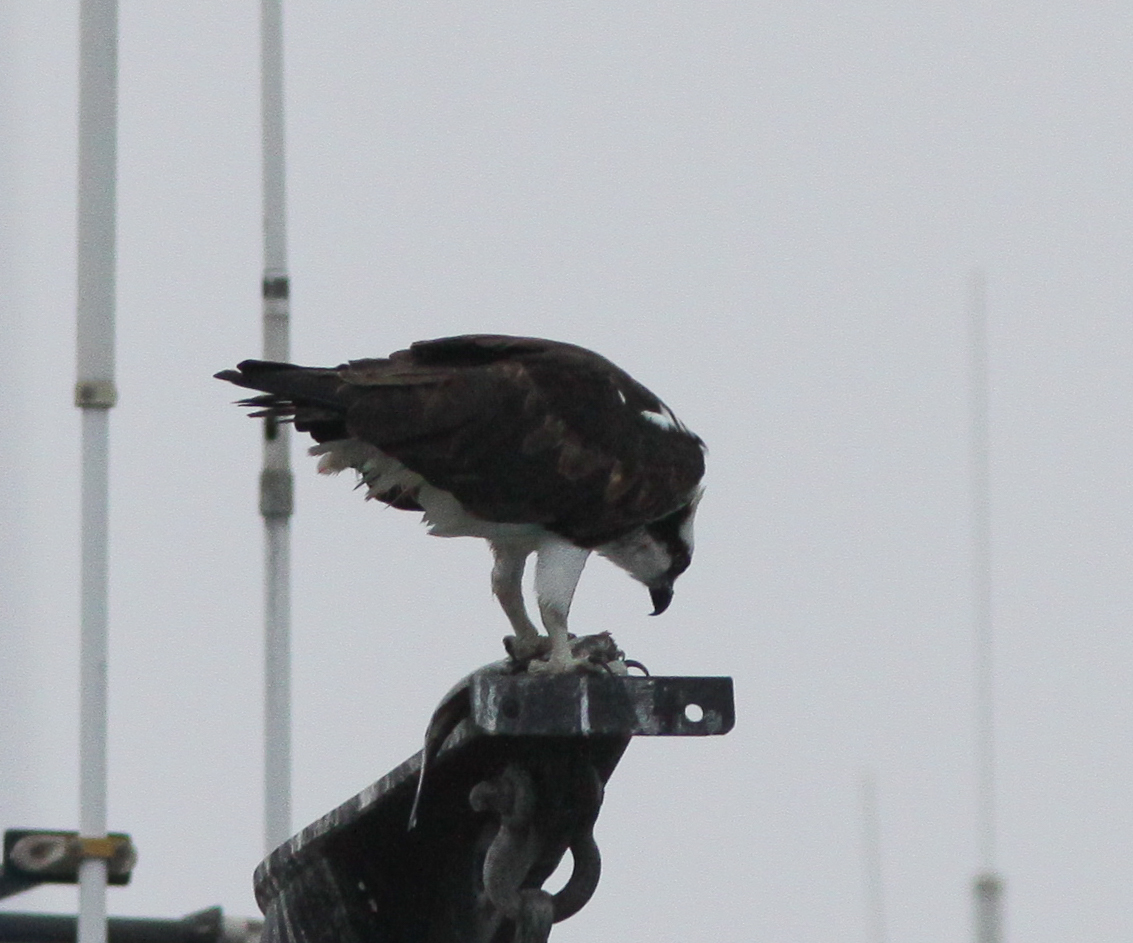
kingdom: Animalia
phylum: Chordata
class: Aves
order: Accipitriformes
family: Pandionidae
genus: Pandion
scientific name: Pandion haliaetus
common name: Osprey
